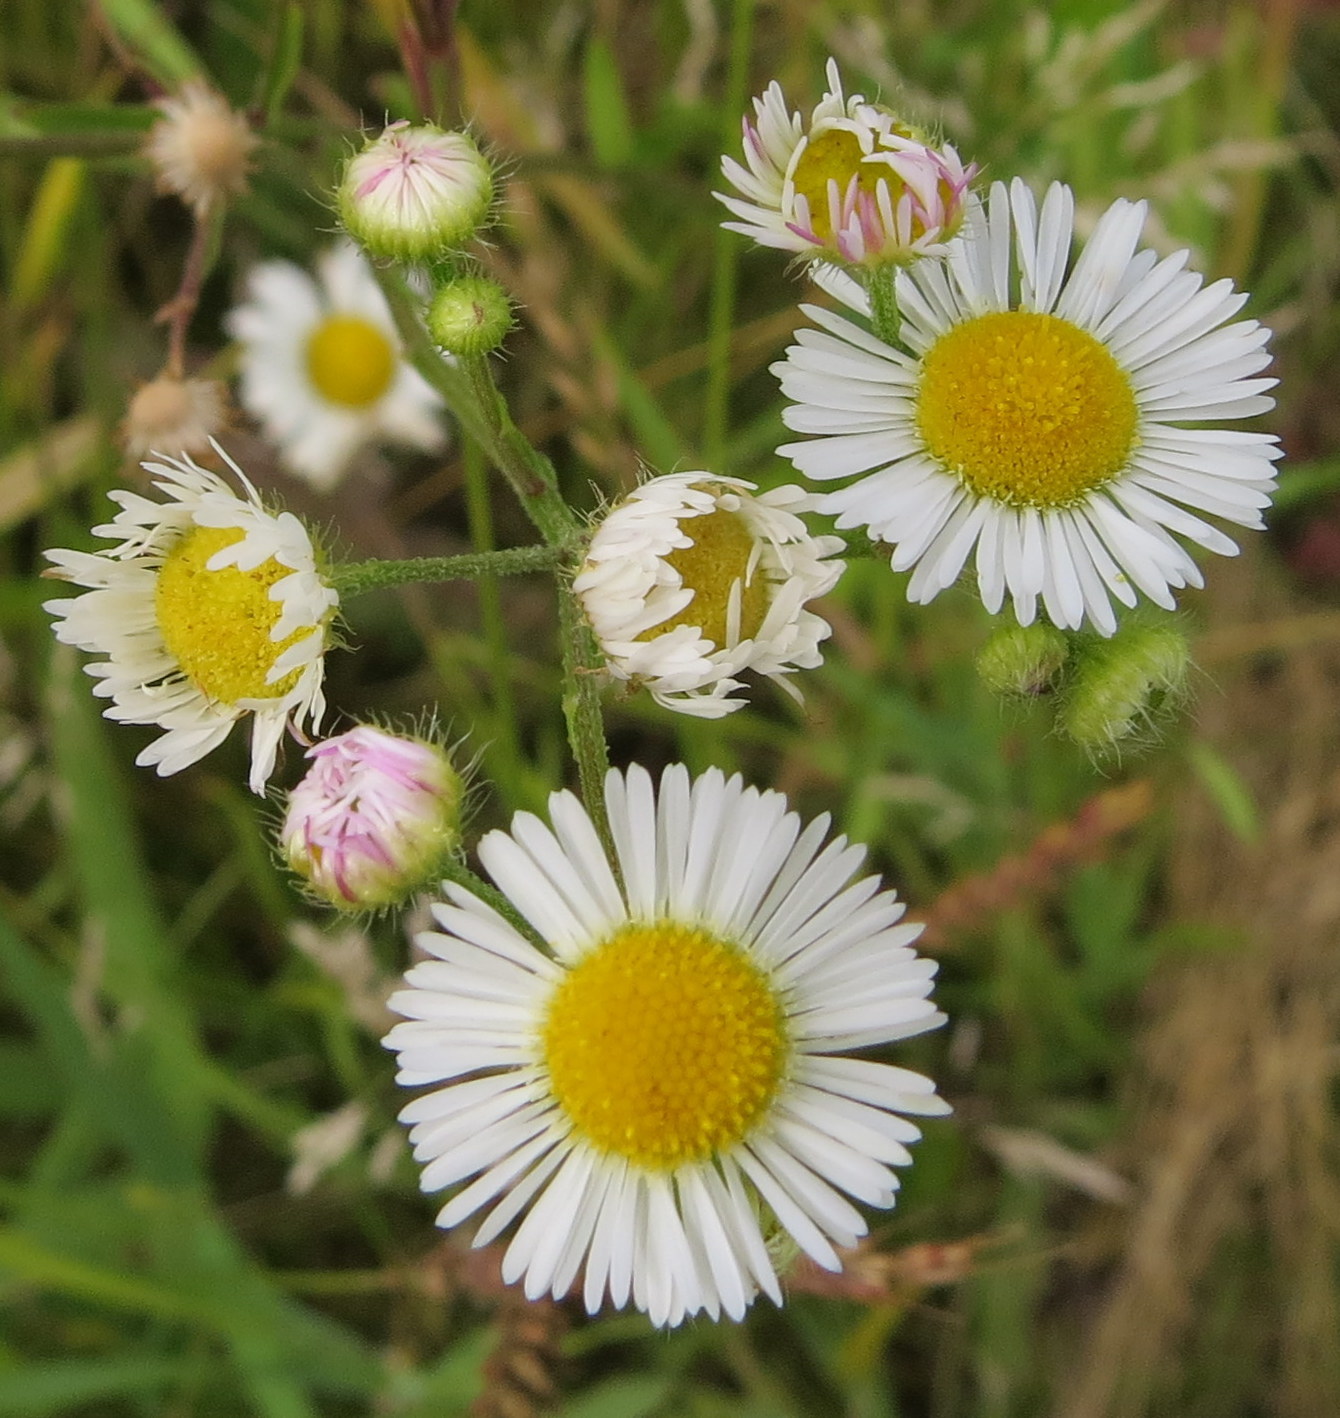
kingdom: Plantae
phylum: Tracheophyta
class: Magnoliopsida
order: Asterales
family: Asteraceae
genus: Erigeron
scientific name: Erigeron strigosus
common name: Common eastern fleabane
